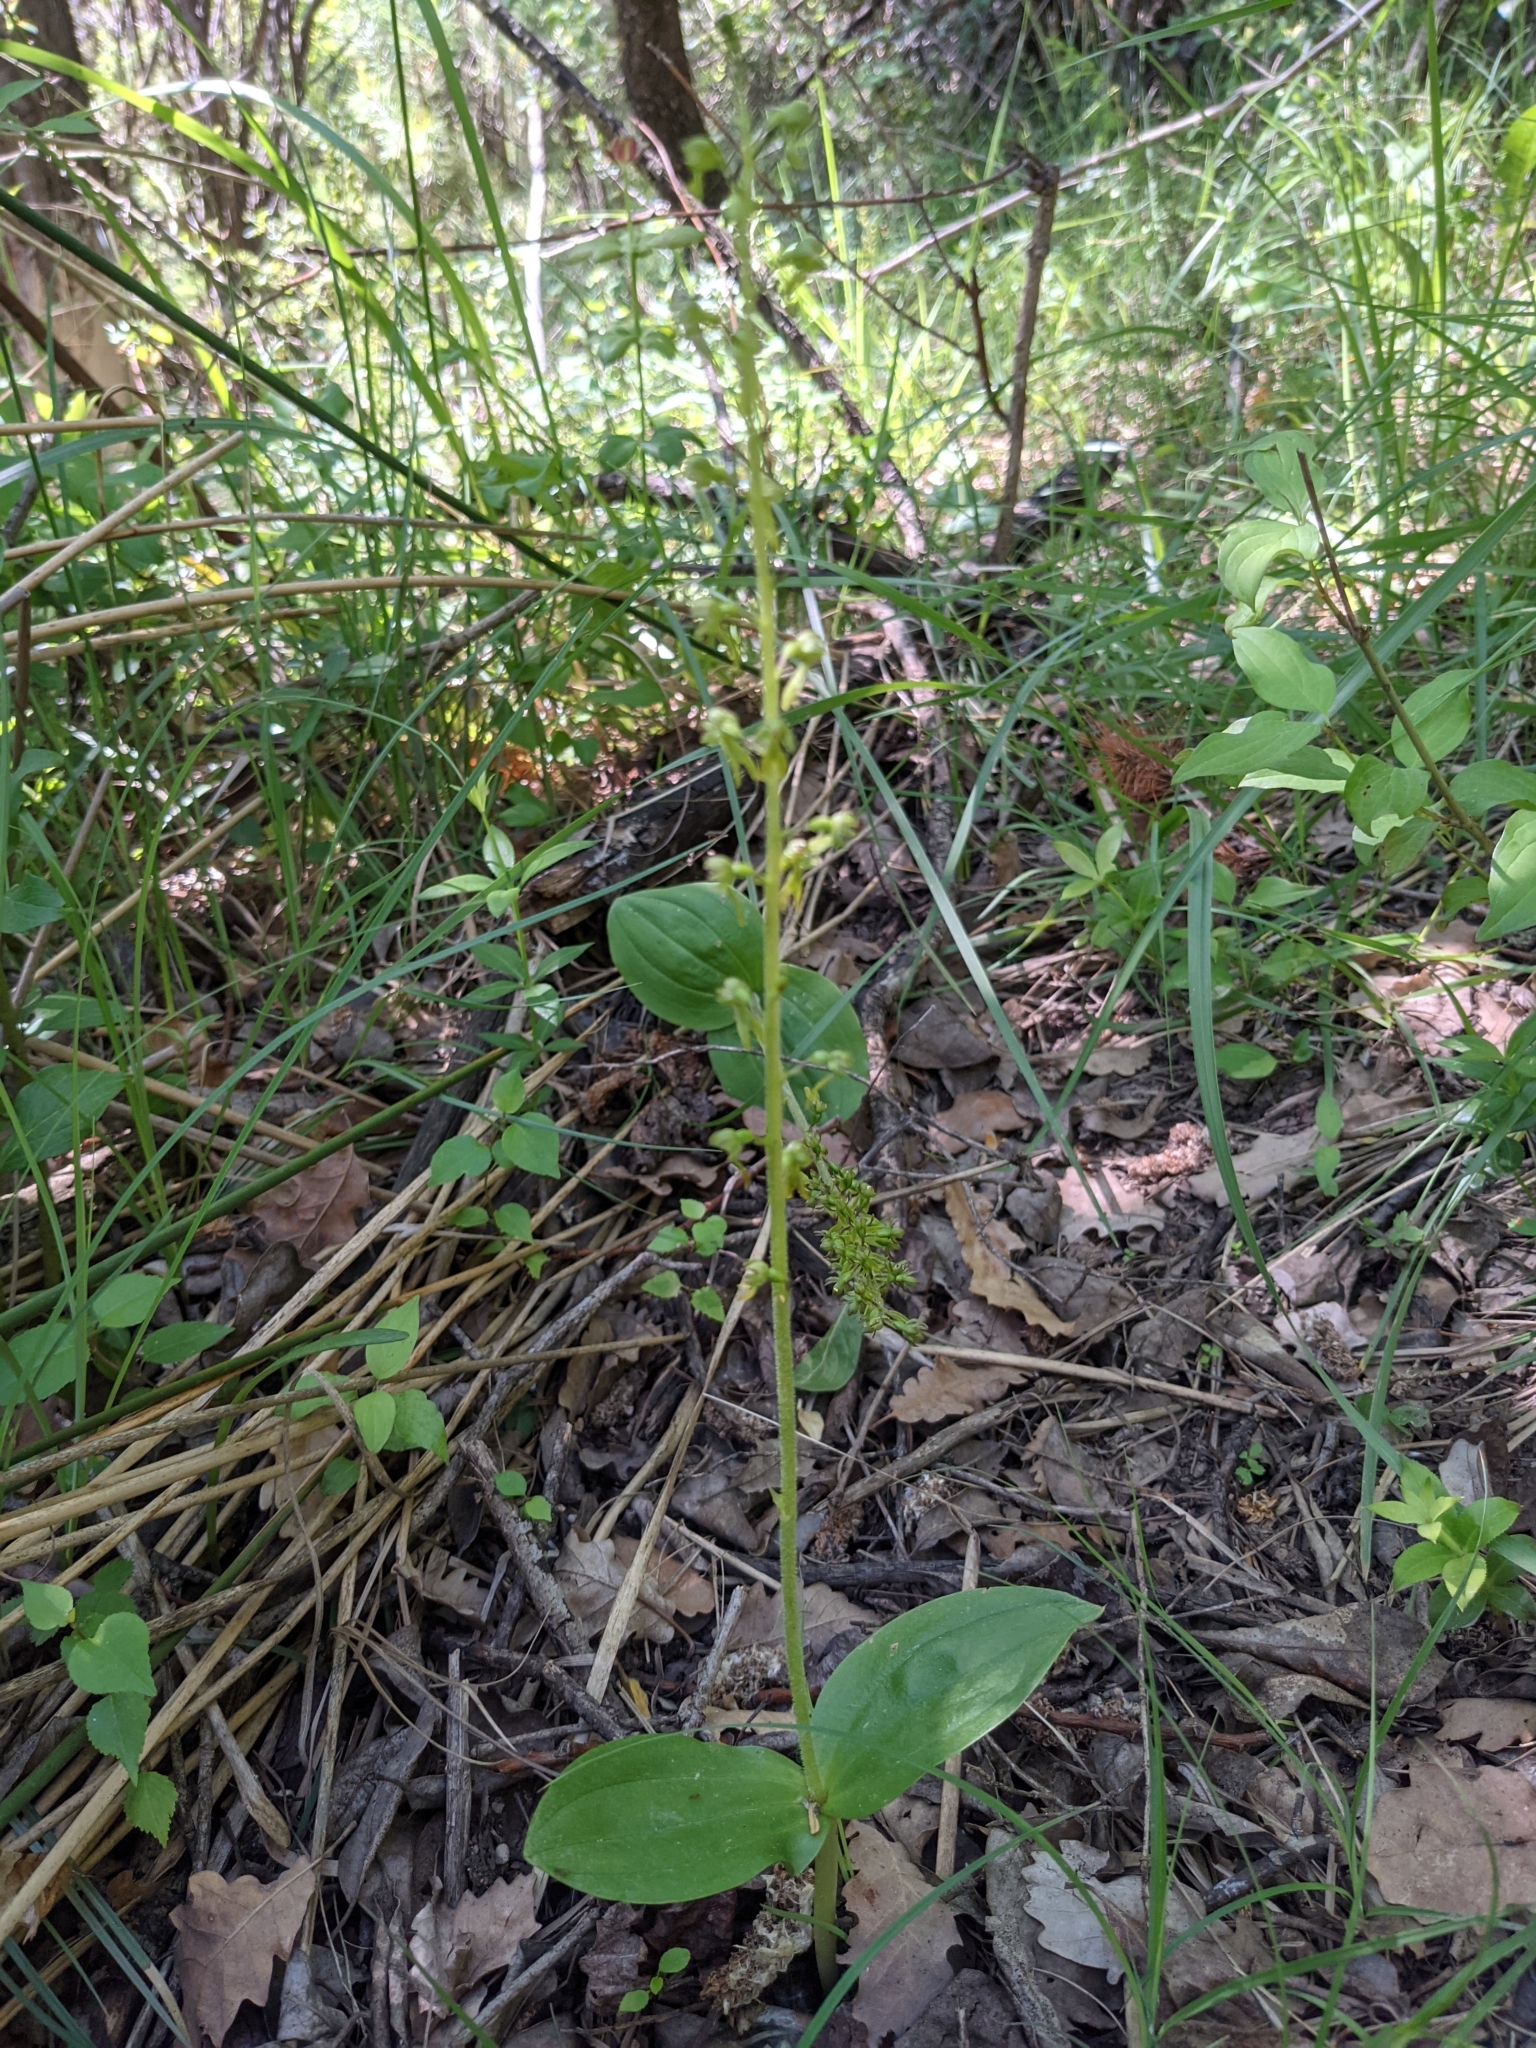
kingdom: Plantae
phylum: Tracheophyta
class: Liliopsida
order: Asparagales
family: Orchidaceae
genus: Neottia
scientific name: Neottia ovata
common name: Common twayblade
